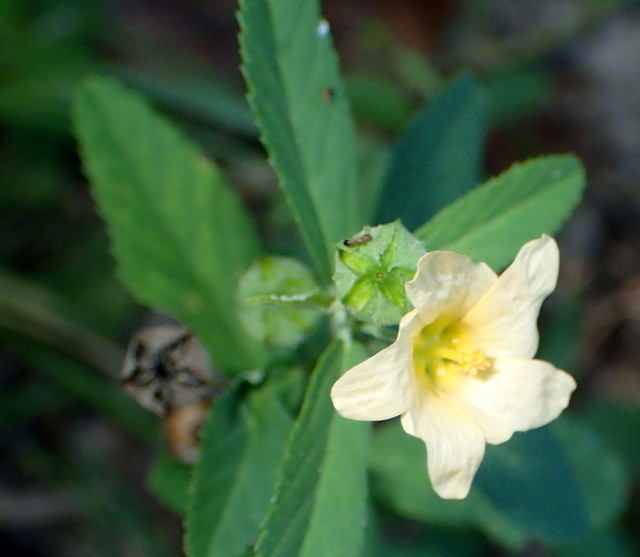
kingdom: Plantae
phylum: Tracheophyta
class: Magnoliopsida
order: Malvales
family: Malvaceae
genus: Sida
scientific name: Sida rhombifolia
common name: Queensland-hemp
